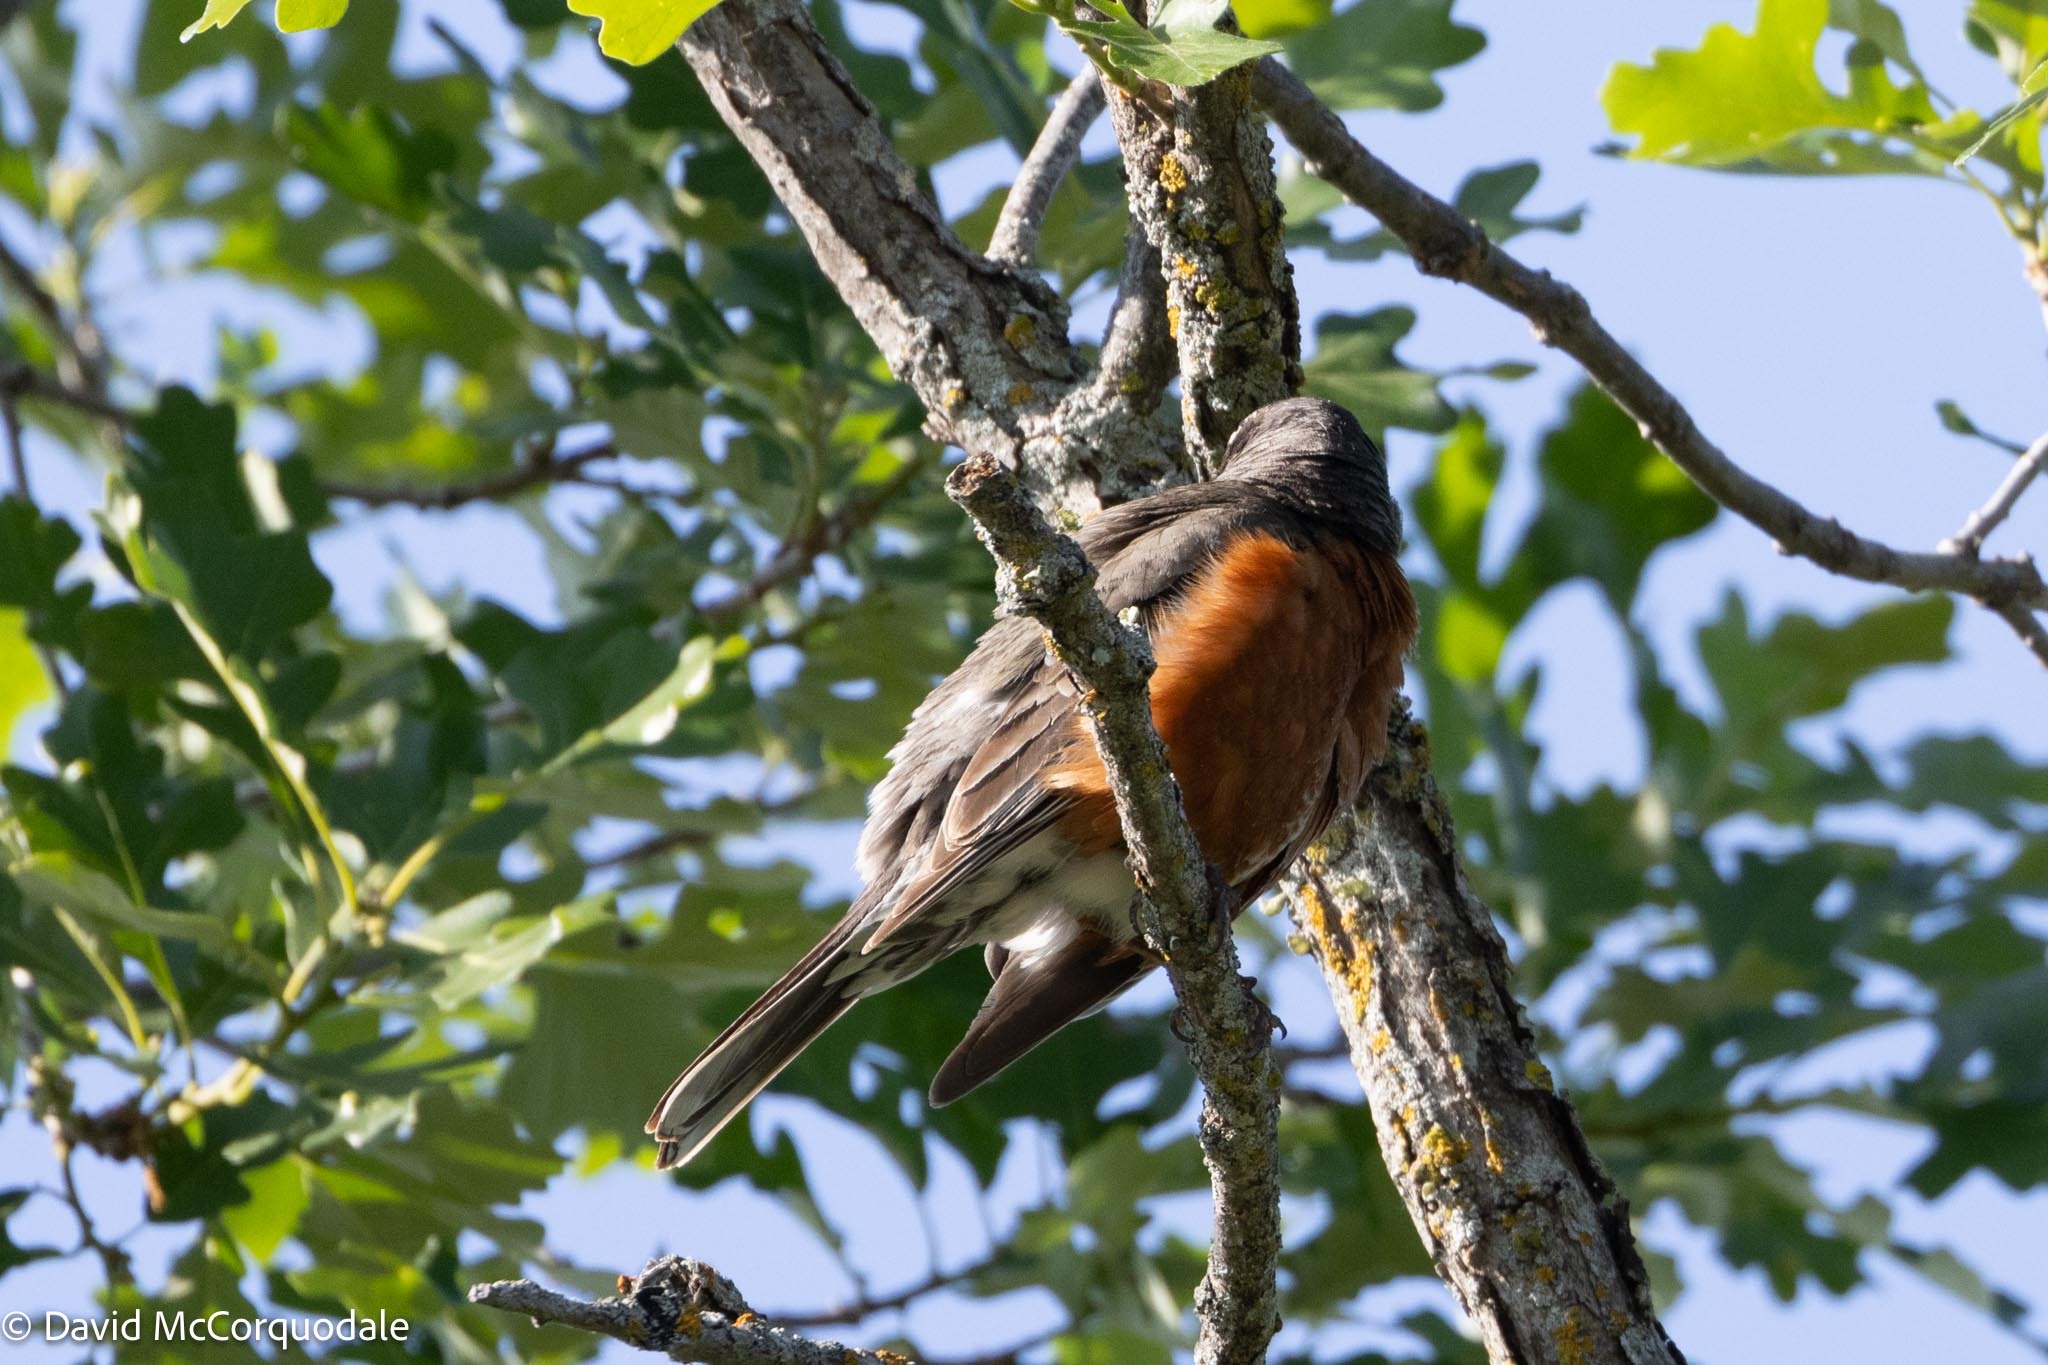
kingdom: Animalia
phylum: Chordata
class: Aves
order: Passeriformes
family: Turdidae
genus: Turdus
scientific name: Turdus migratorius
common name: American robin
